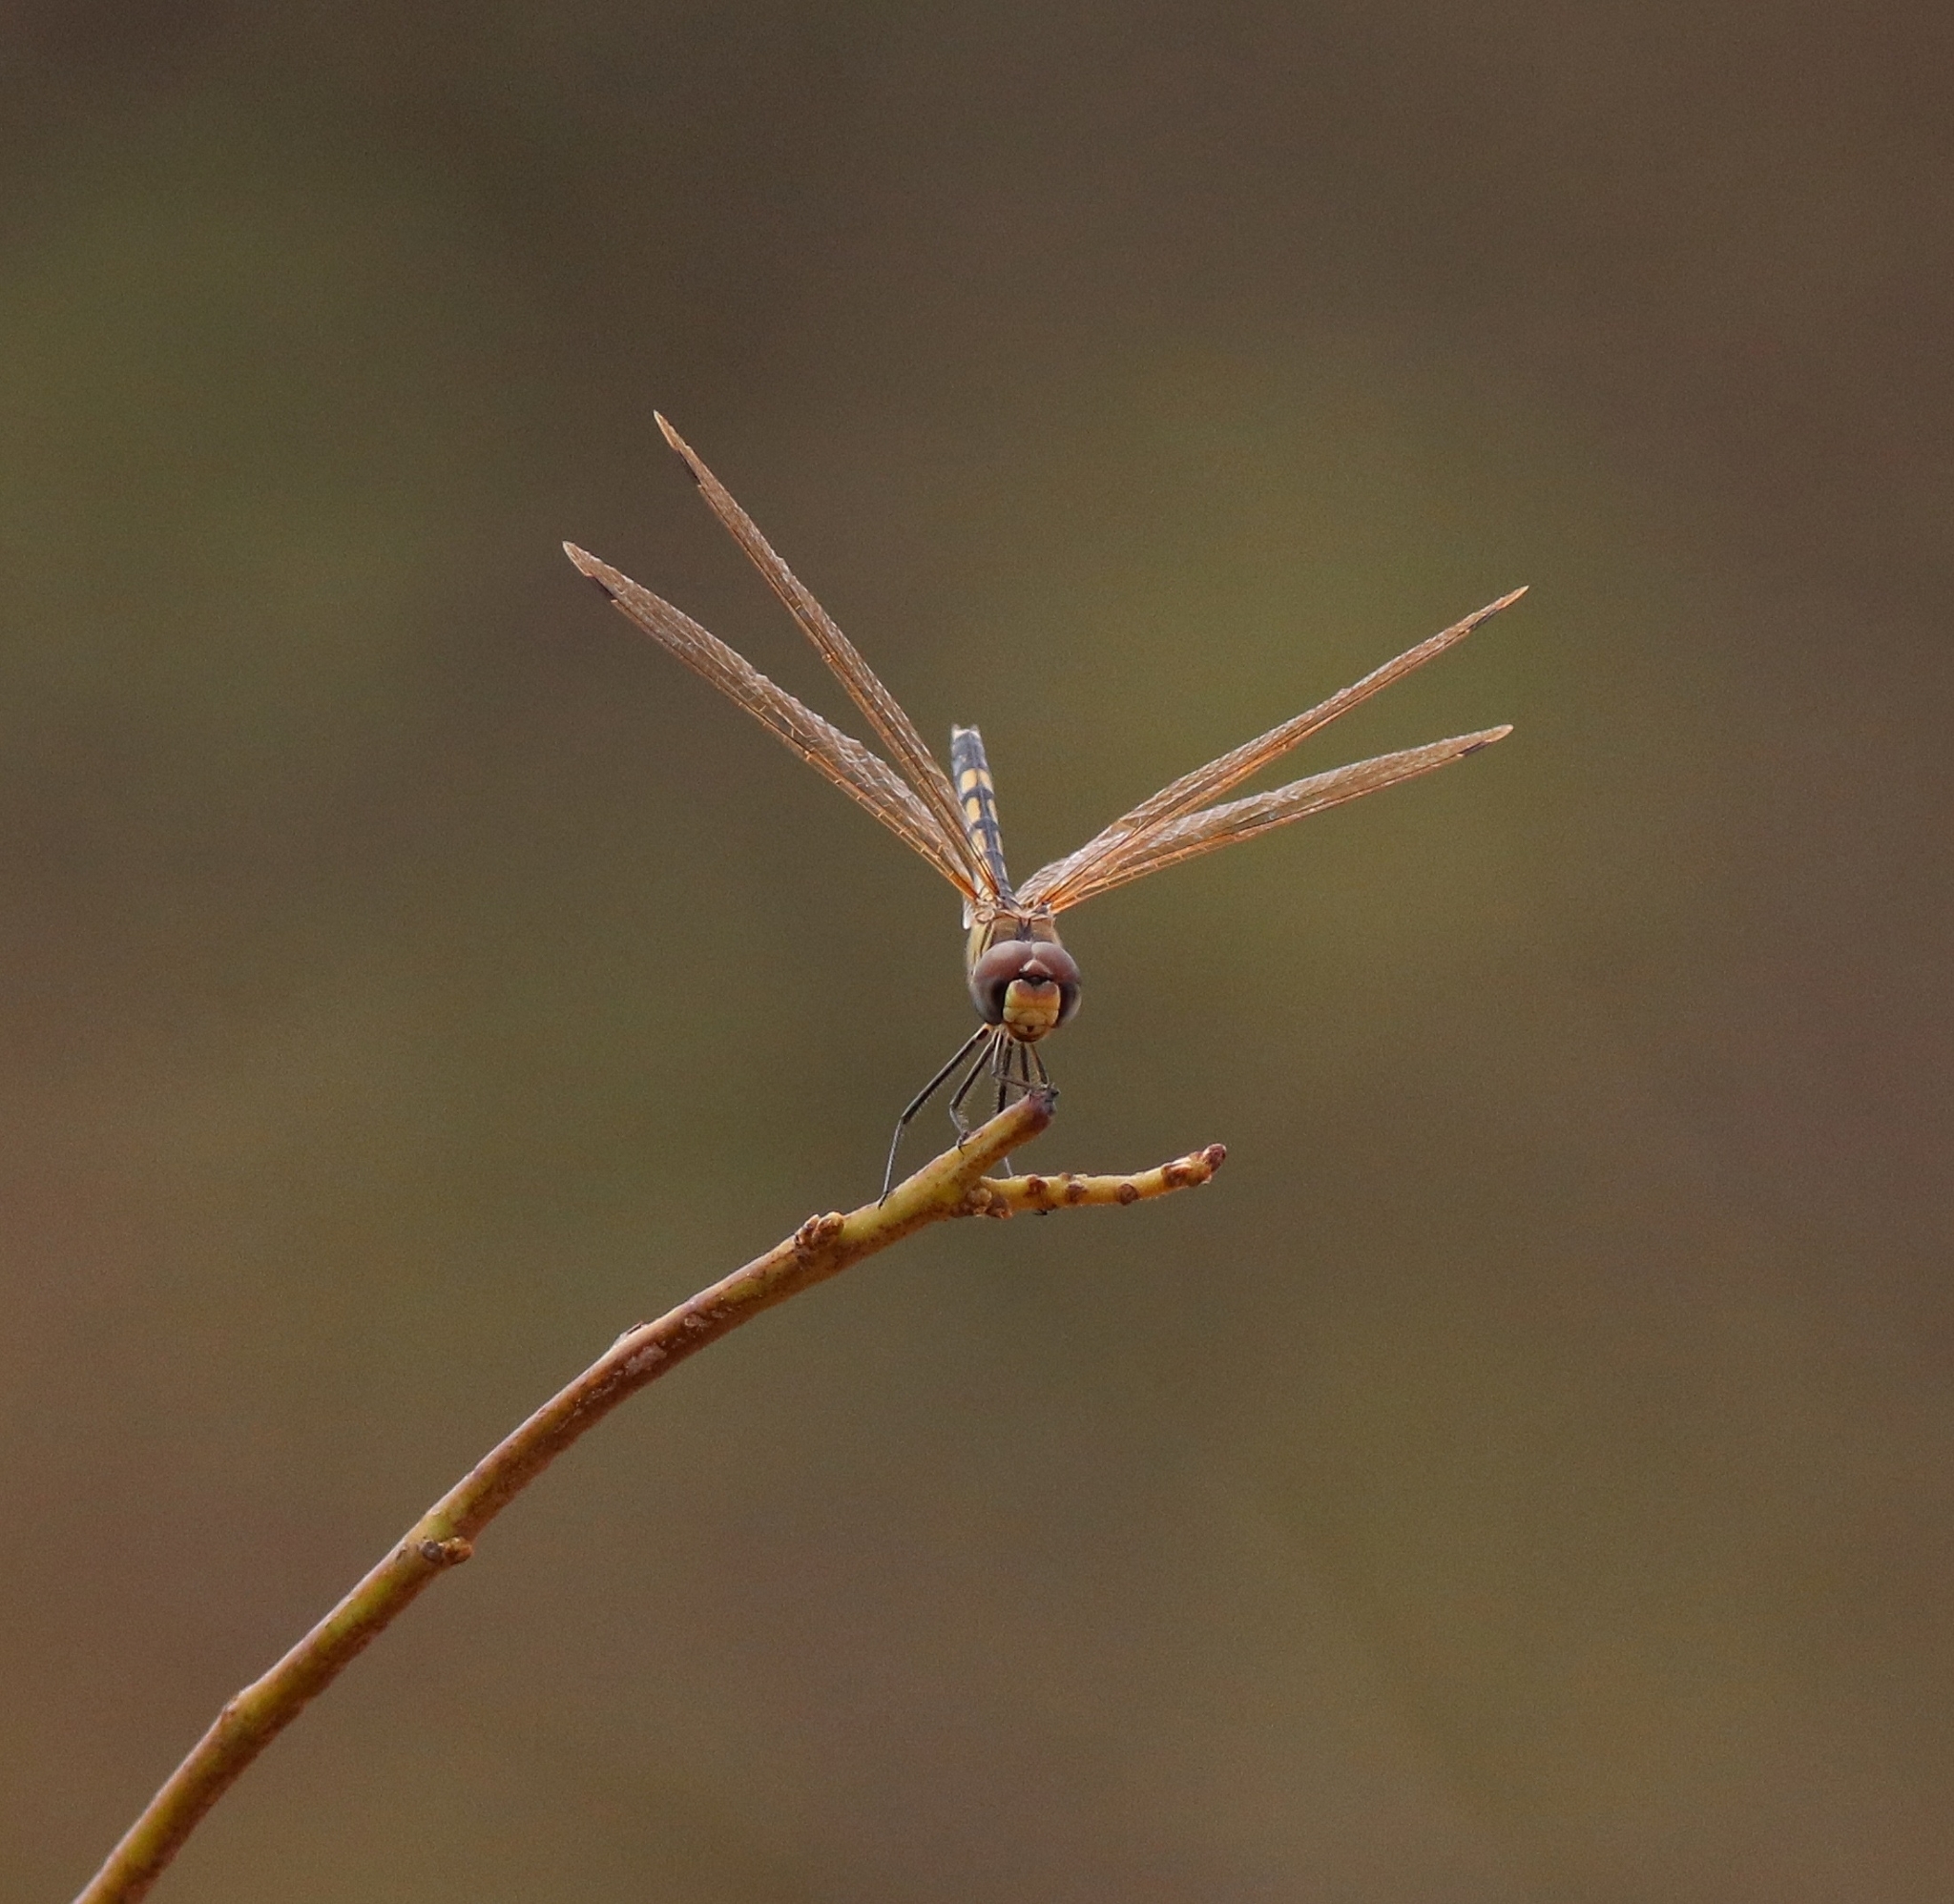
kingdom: Animalia
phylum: Arthropoda
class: Insecta
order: Odonata
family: Libellulidae
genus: Trithemis
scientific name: Trithemis pallidinervis
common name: Dancing dropwing
